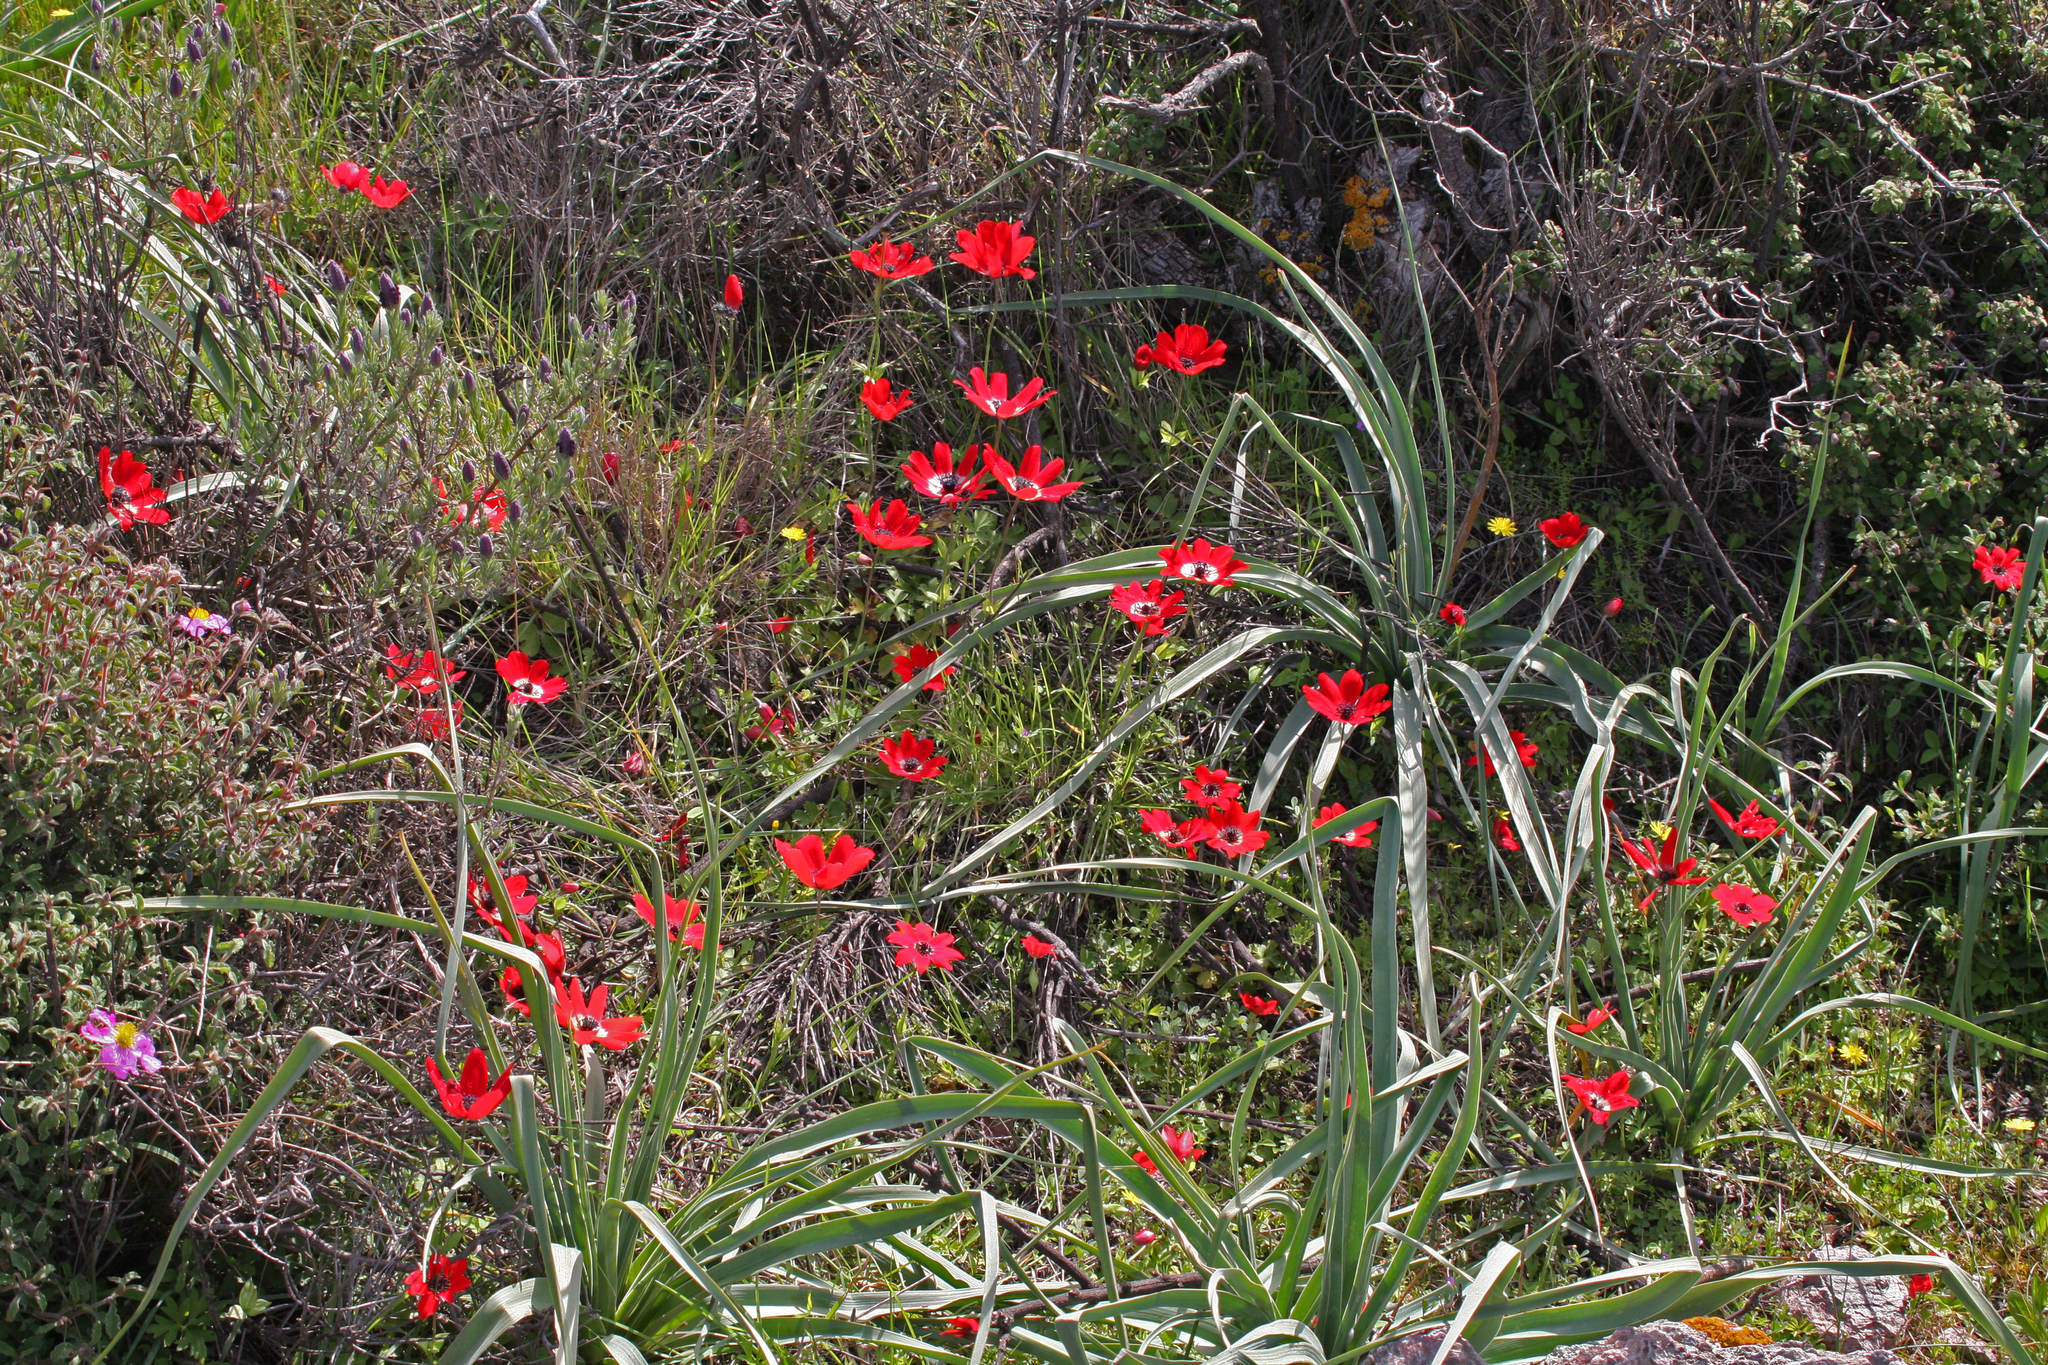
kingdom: Plantae
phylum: Tracheophyta
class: Magnoliopsida
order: Ranunculales
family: Ranunculaceae
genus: Anemone
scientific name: Anemone coronaria
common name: Poppy anemone
